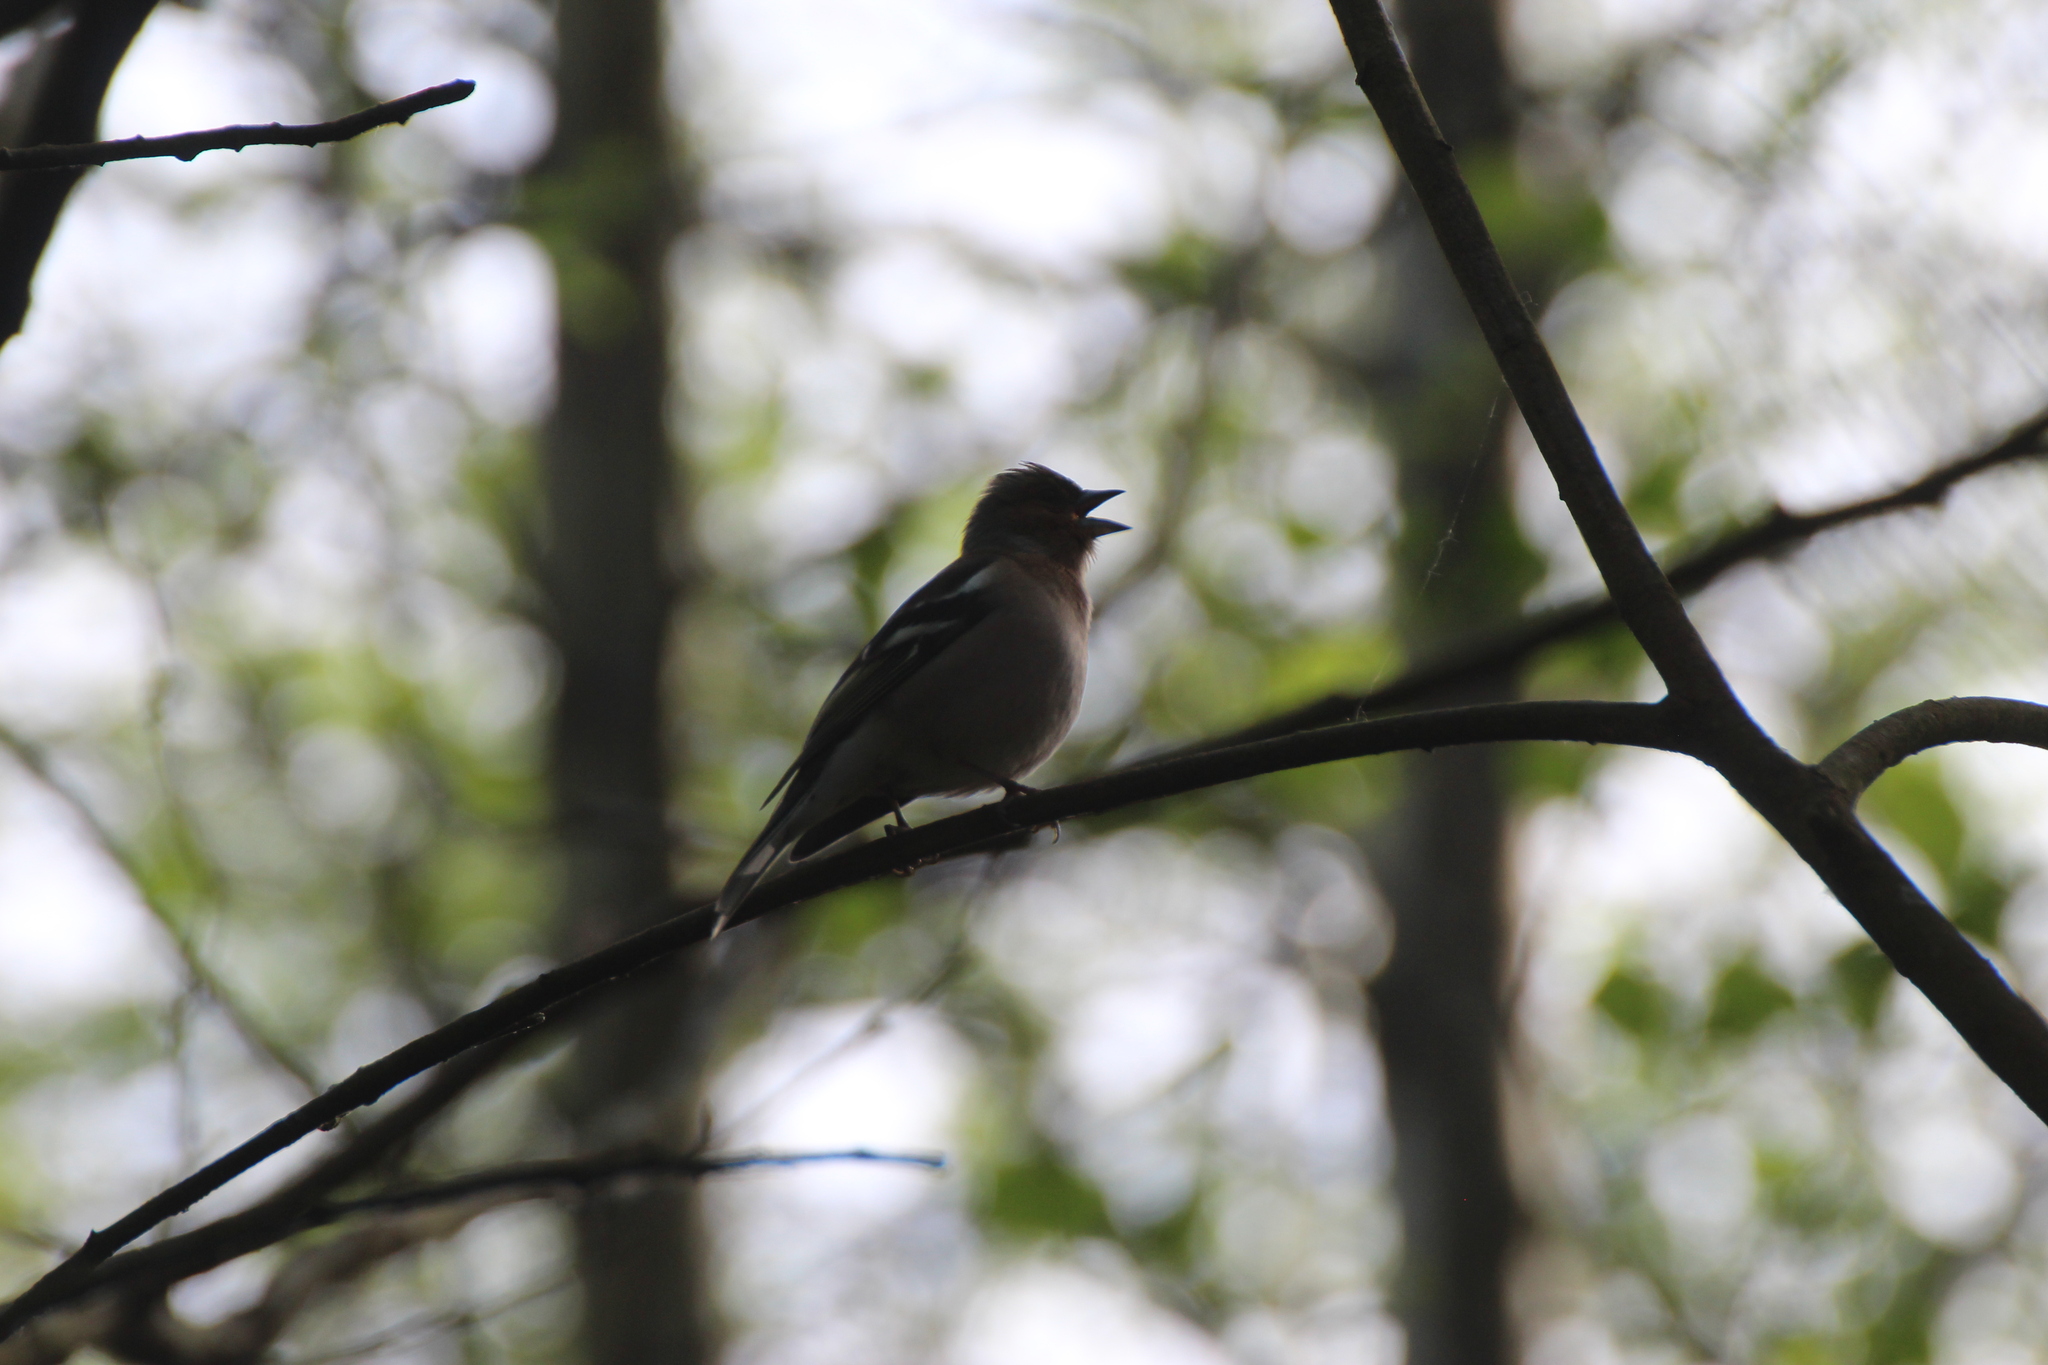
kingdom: Animalia
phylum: Chordata
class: Aves
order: Passeriformes
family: Fringillidae
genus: Fringilla
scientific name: Fringilla coelebs
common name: Common chaffinch
